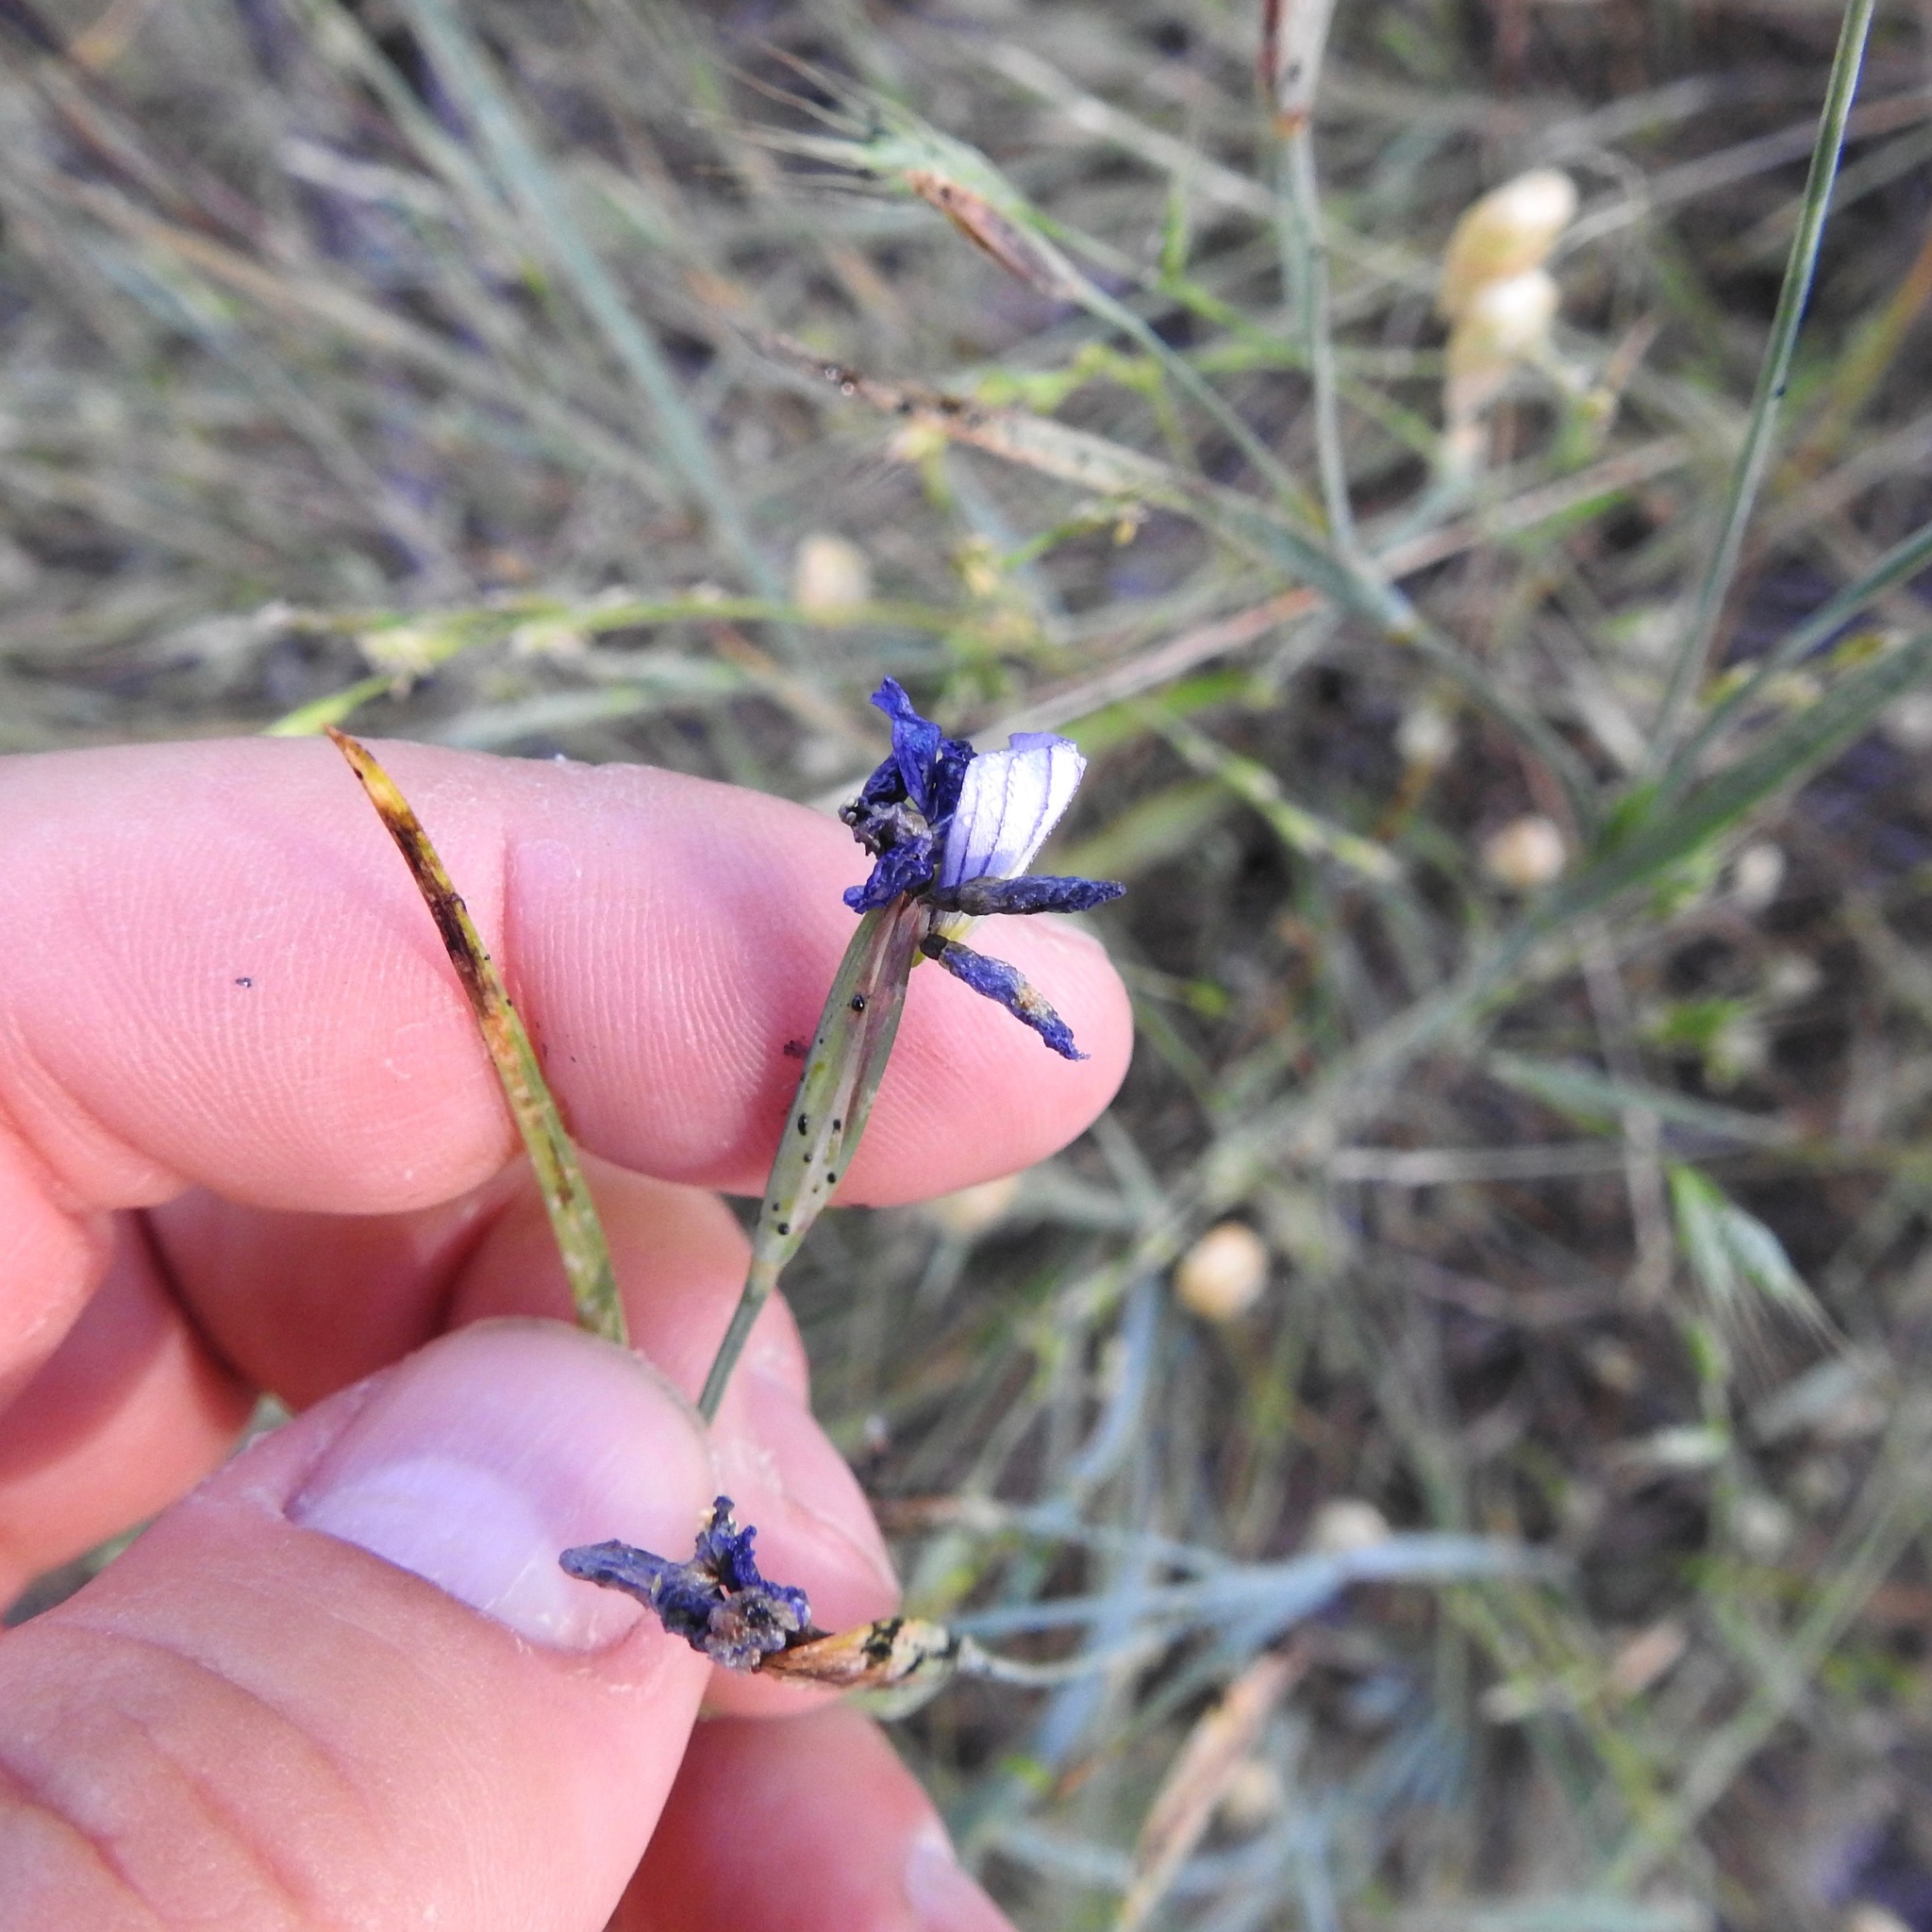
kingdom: Plantae
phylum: Tracheophyta
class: Liliopsida
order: Asparagales
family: Iridaceae
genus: Sisyrinchium
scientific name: Sisyrinchium bellum
